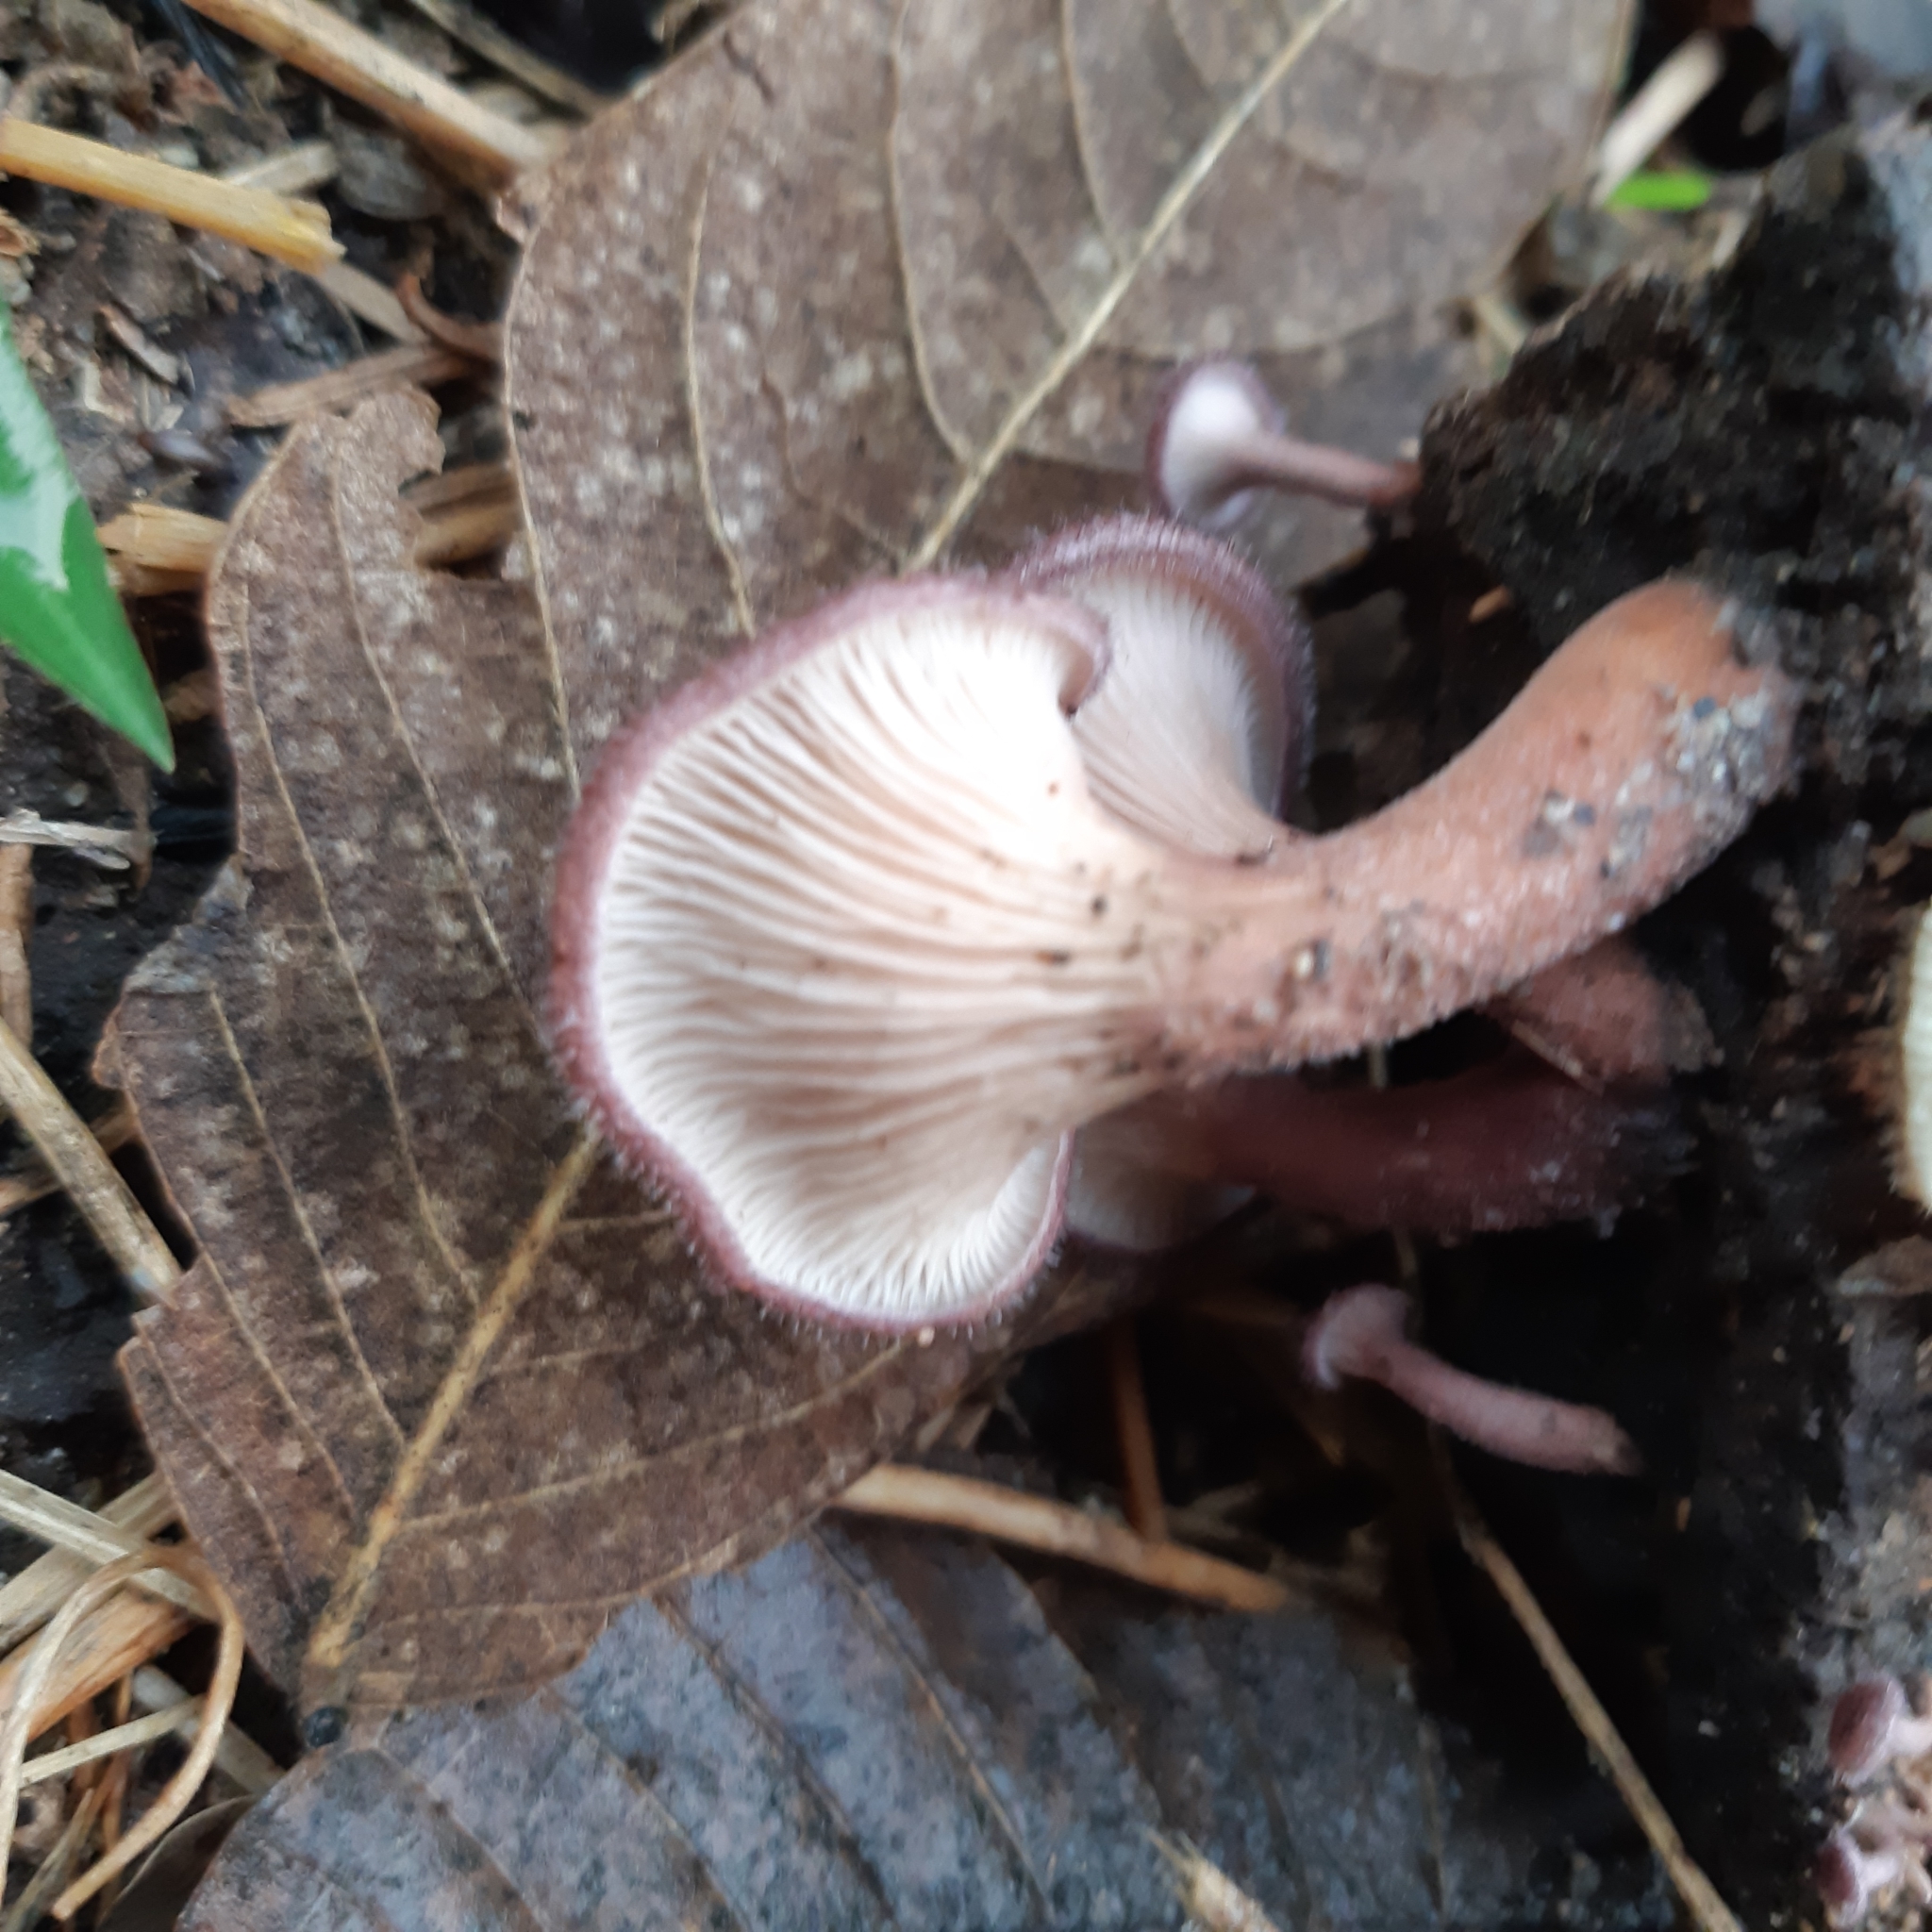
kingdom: Fungi
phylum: Basidiomycota
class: Agaricomycetes
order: Polyporales
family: Panaceae
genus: Panus
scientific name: Panus strigellus
